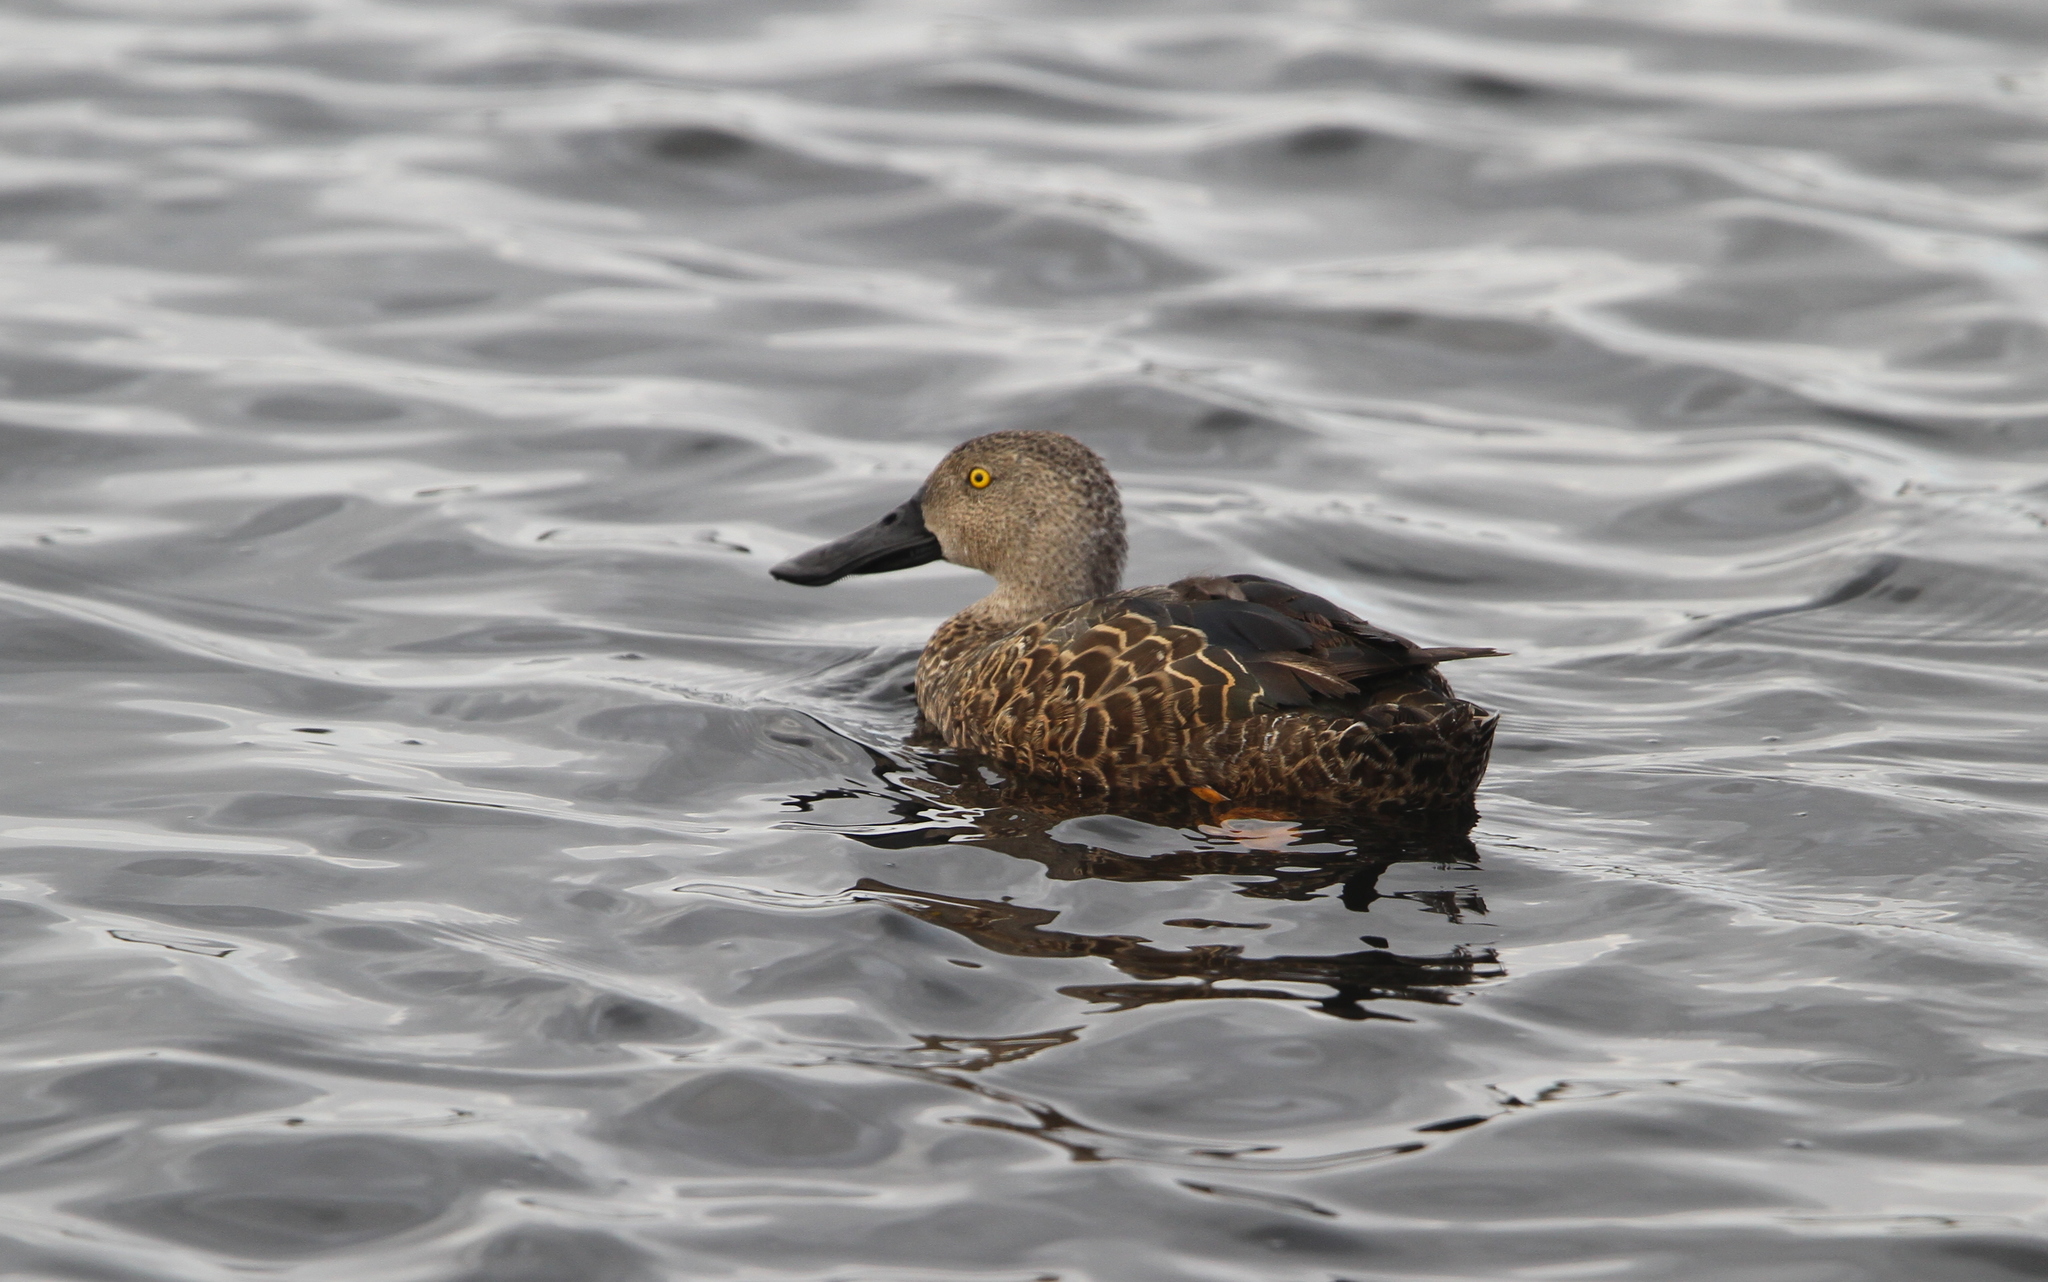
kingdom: Animalia
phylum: Chordata
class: Aves
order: Anseriformes
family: Anatidae
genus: Spatula
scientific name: Spatula smithii
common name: Cape shoveler
